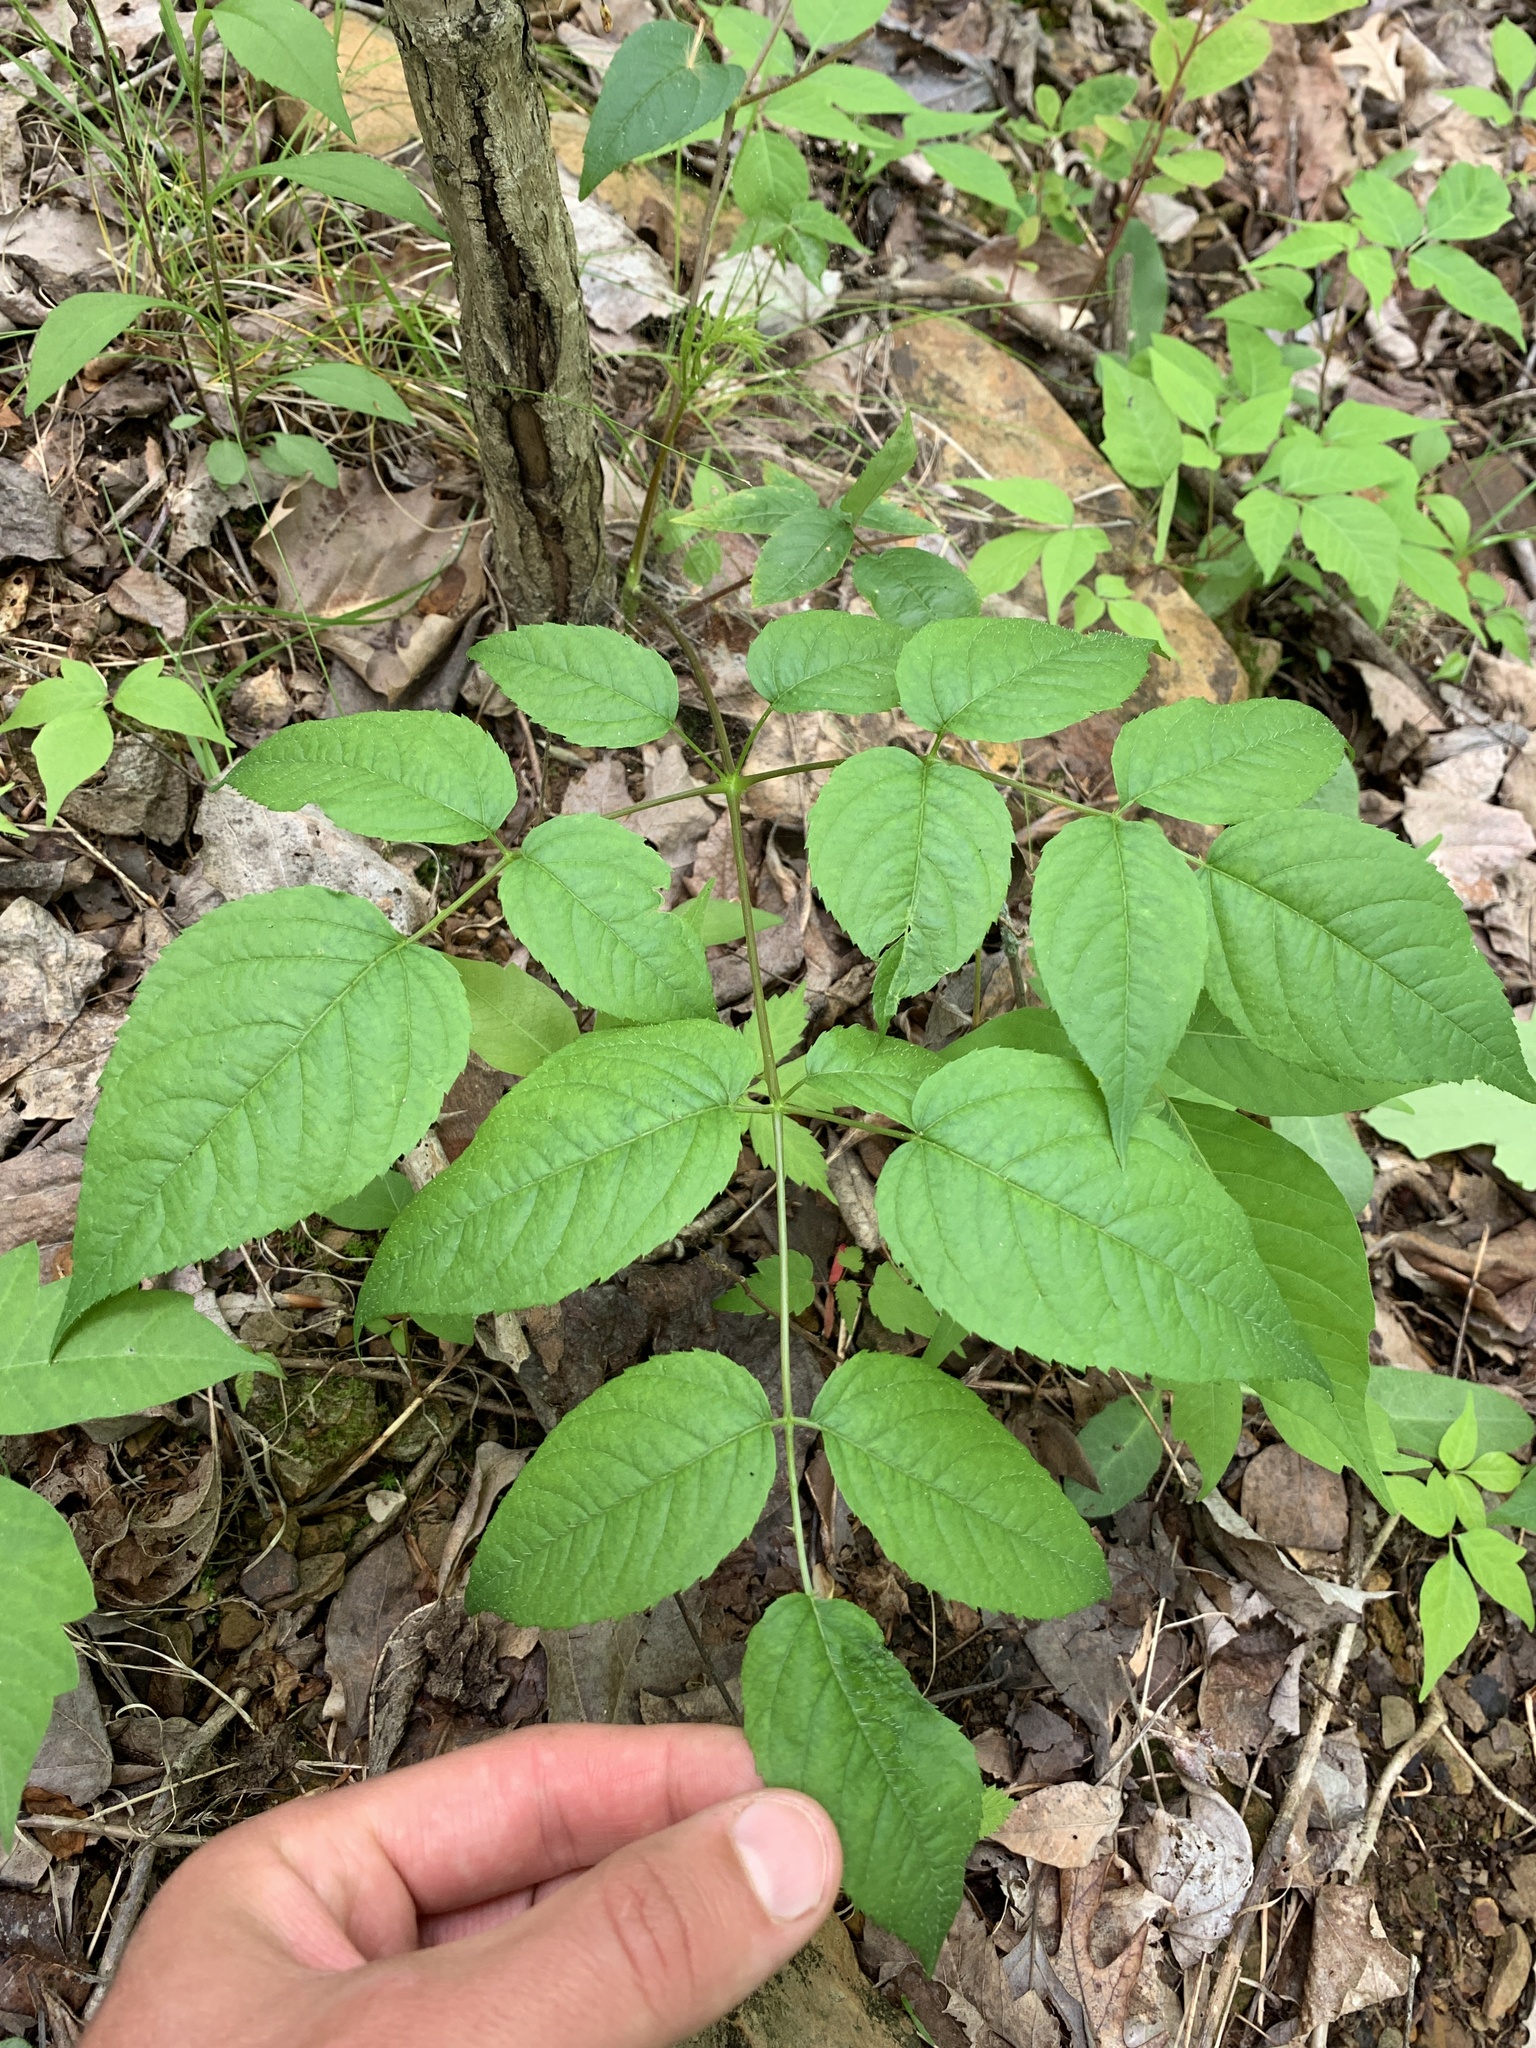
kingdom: Plantae
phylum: Tracheophyta
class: Magnoliopsida
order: Apiales
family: Araliaceae
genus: Aralia
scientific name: Aralia spinosa
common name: Hercules'-club
